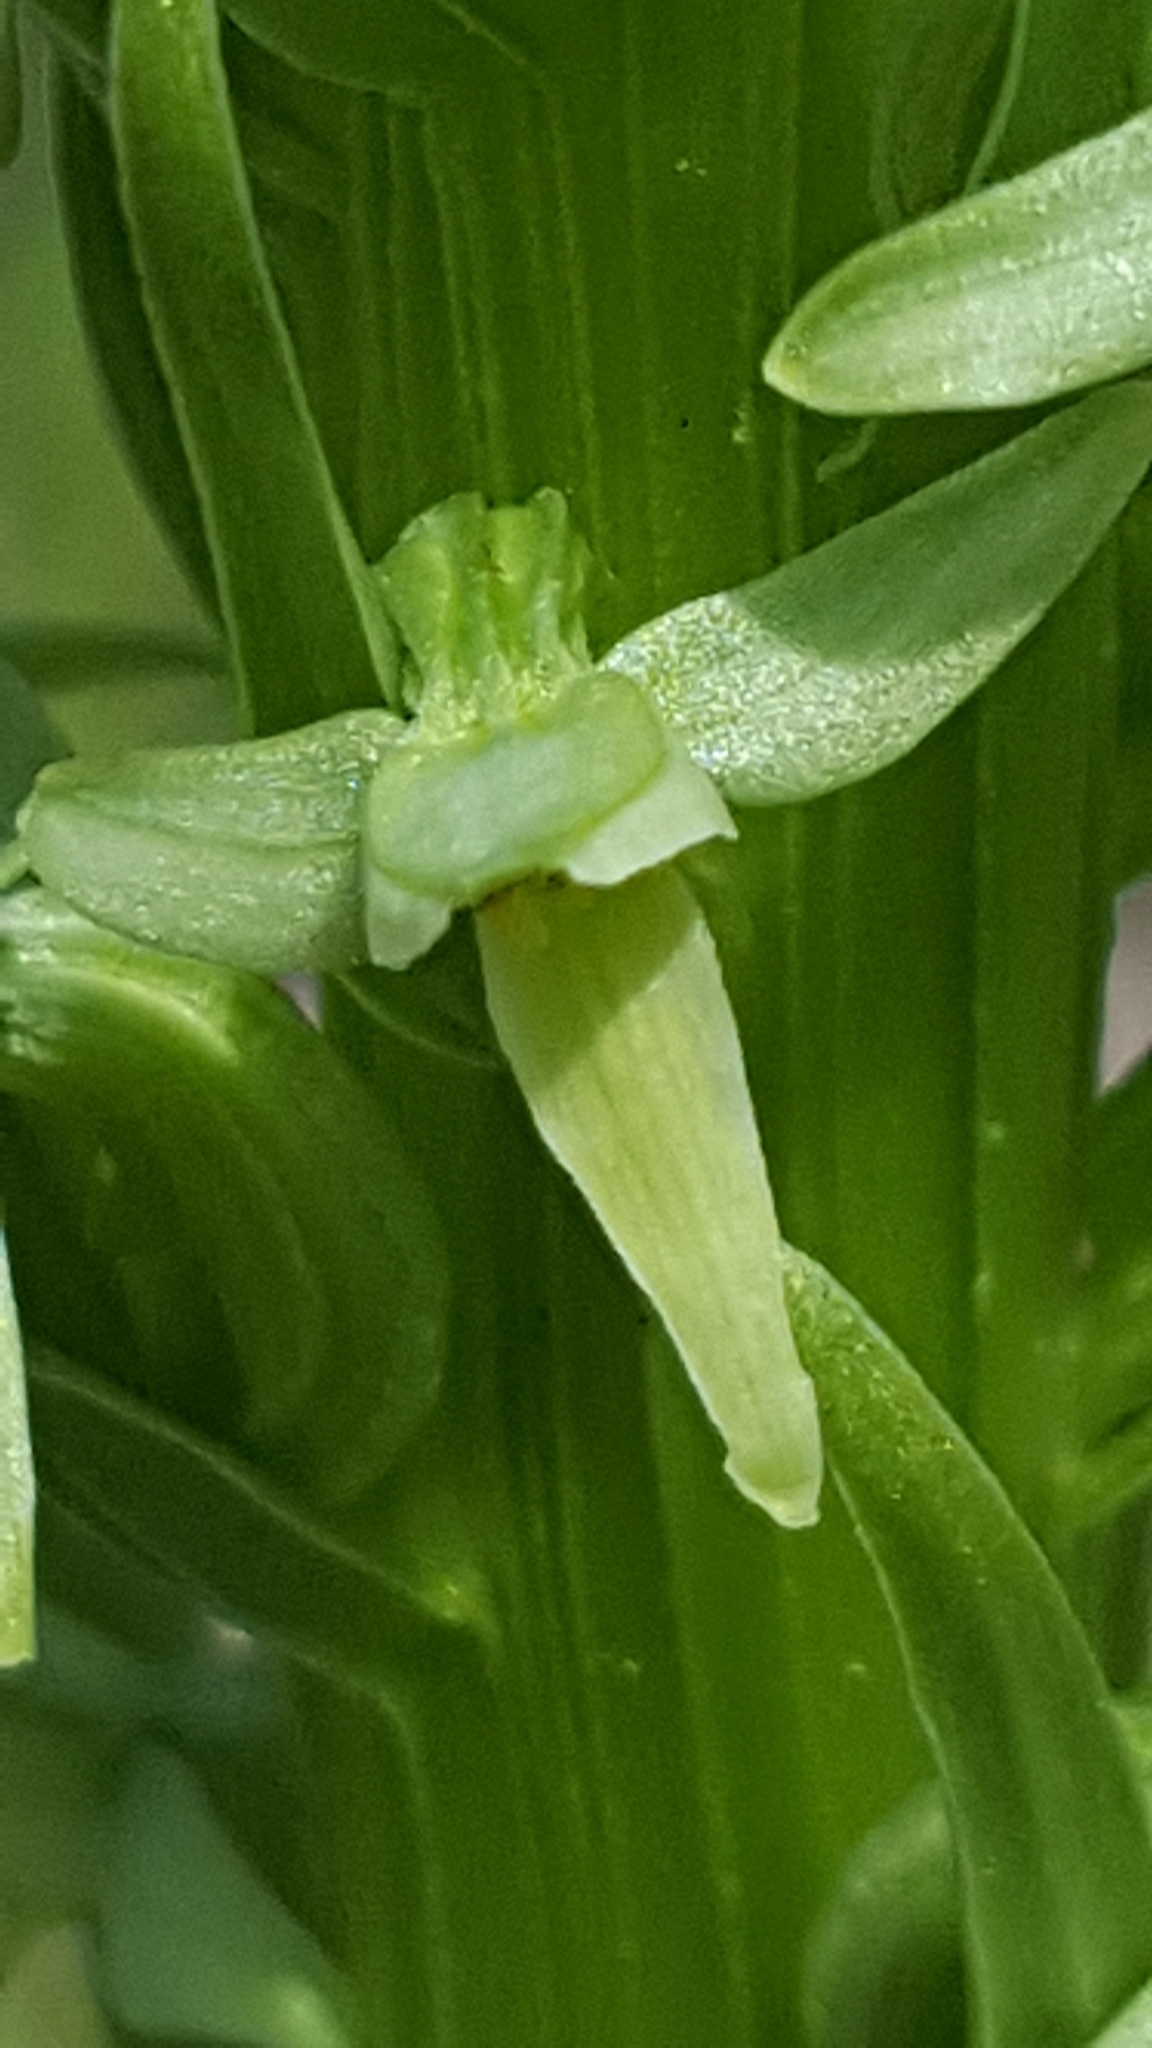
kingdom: Plantae
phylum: Tracheophyta
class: Liliopsida
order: Asparagales
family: Orchidaceae
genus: Platanthera
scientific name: Platanthera huronensis
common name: Fragrant green orchid
